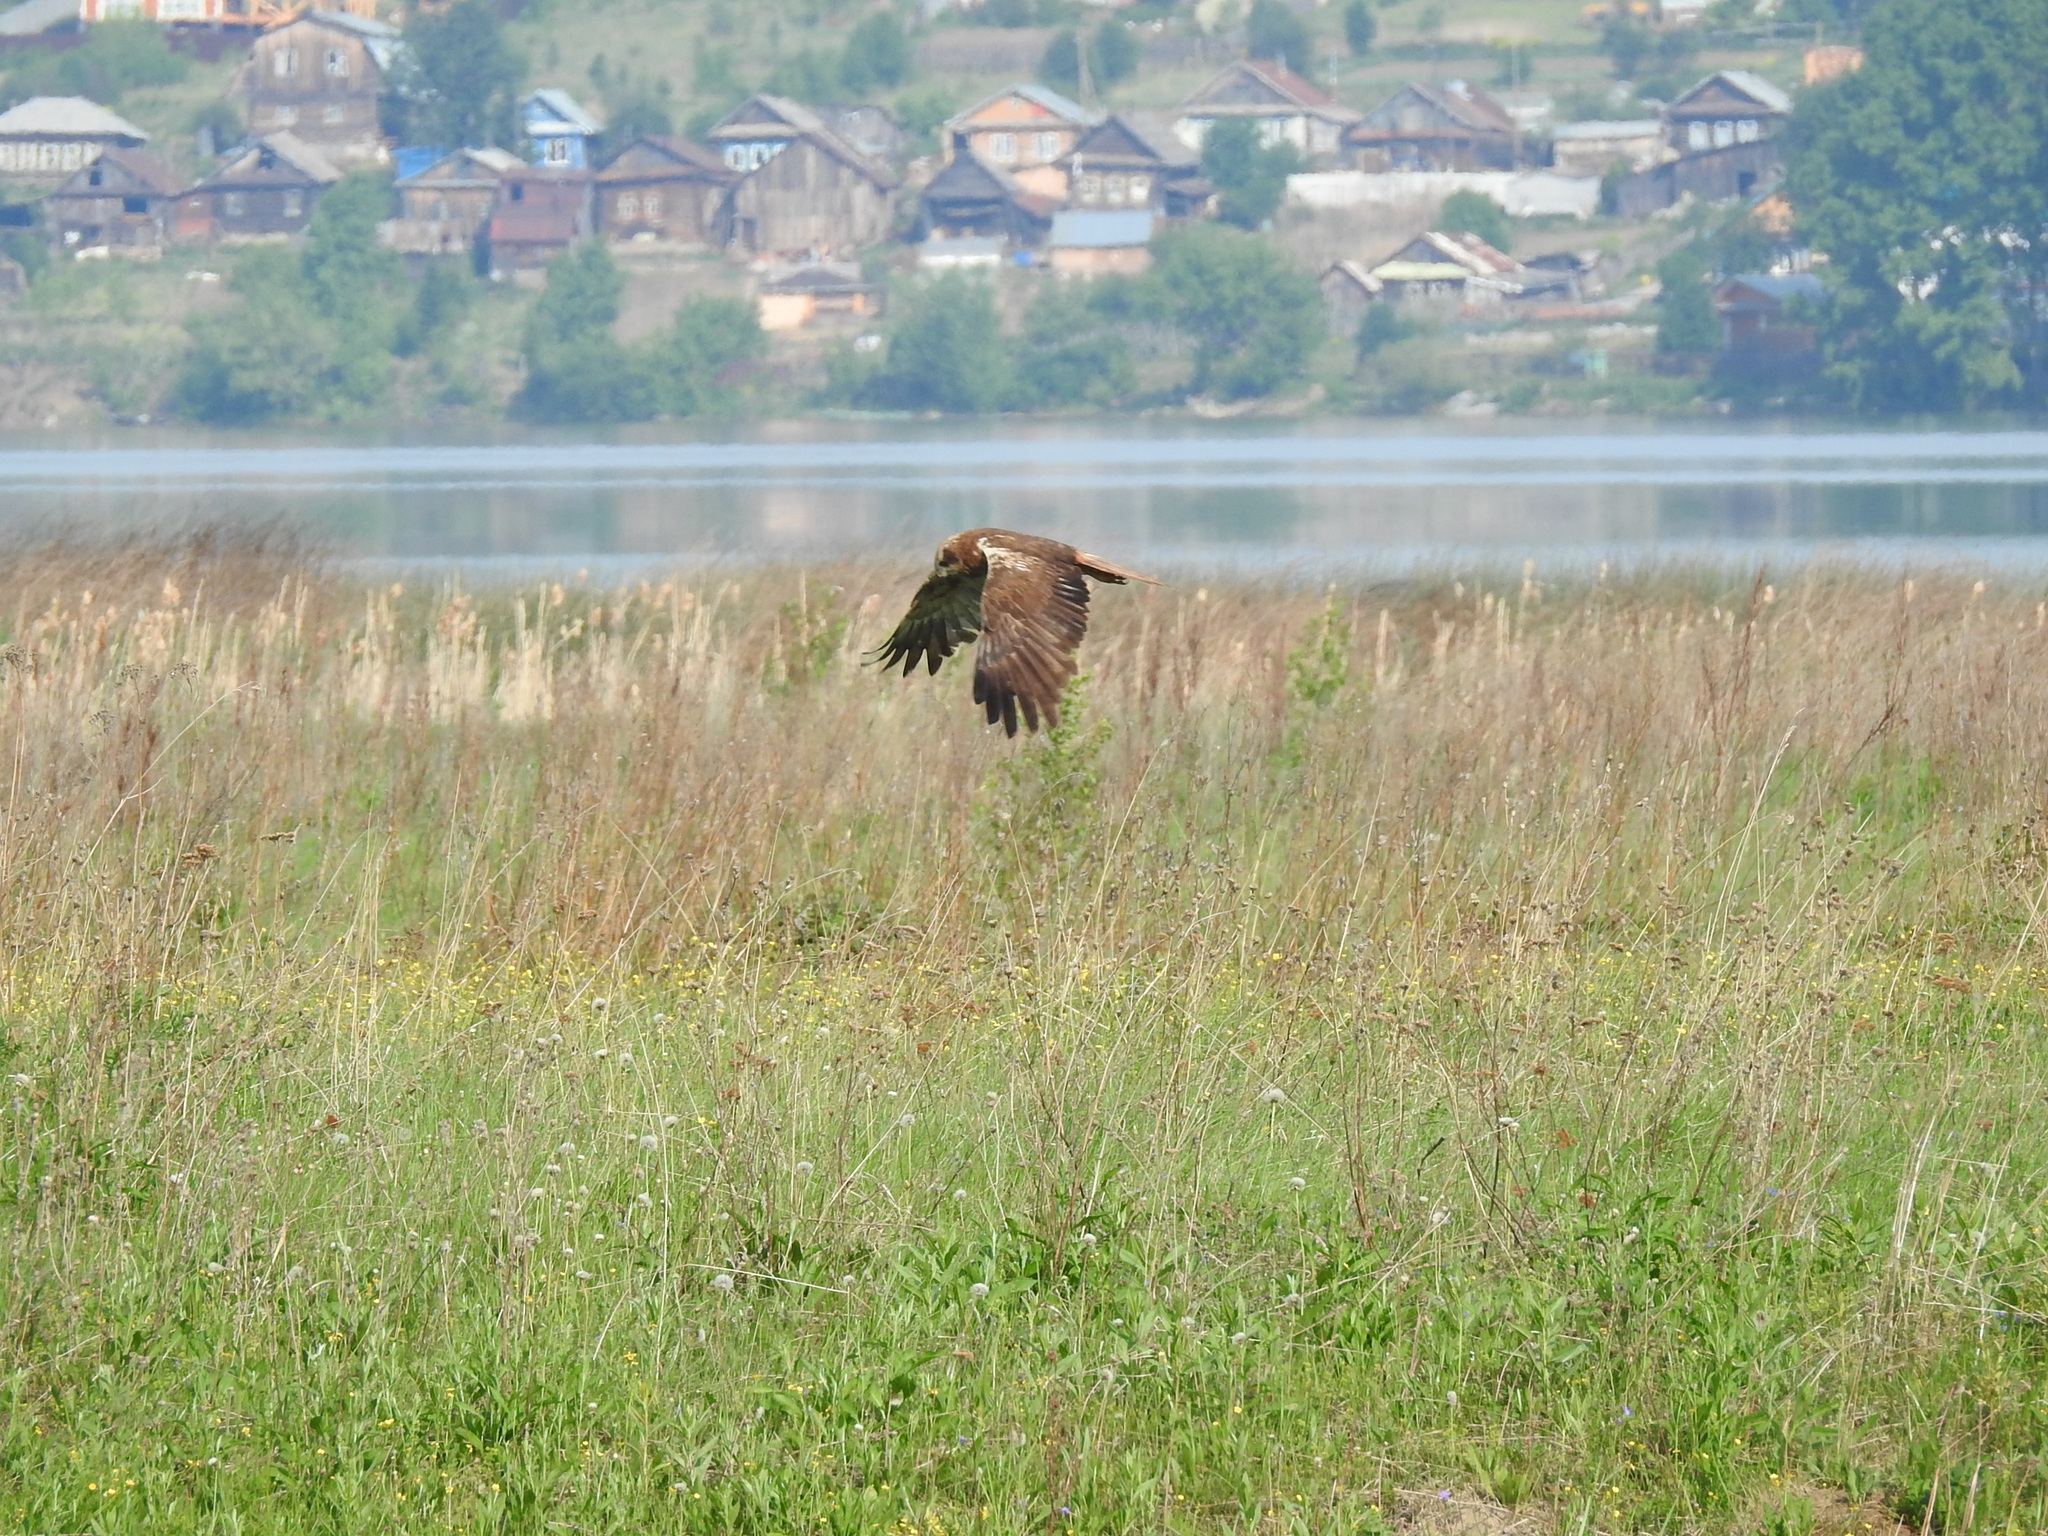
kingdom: Animalia
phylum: Chordata
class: Aves
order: Accipitriformes
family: Accipitridae
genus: Circus
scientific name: Circus aeruginosus
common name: Western marsh harrier
